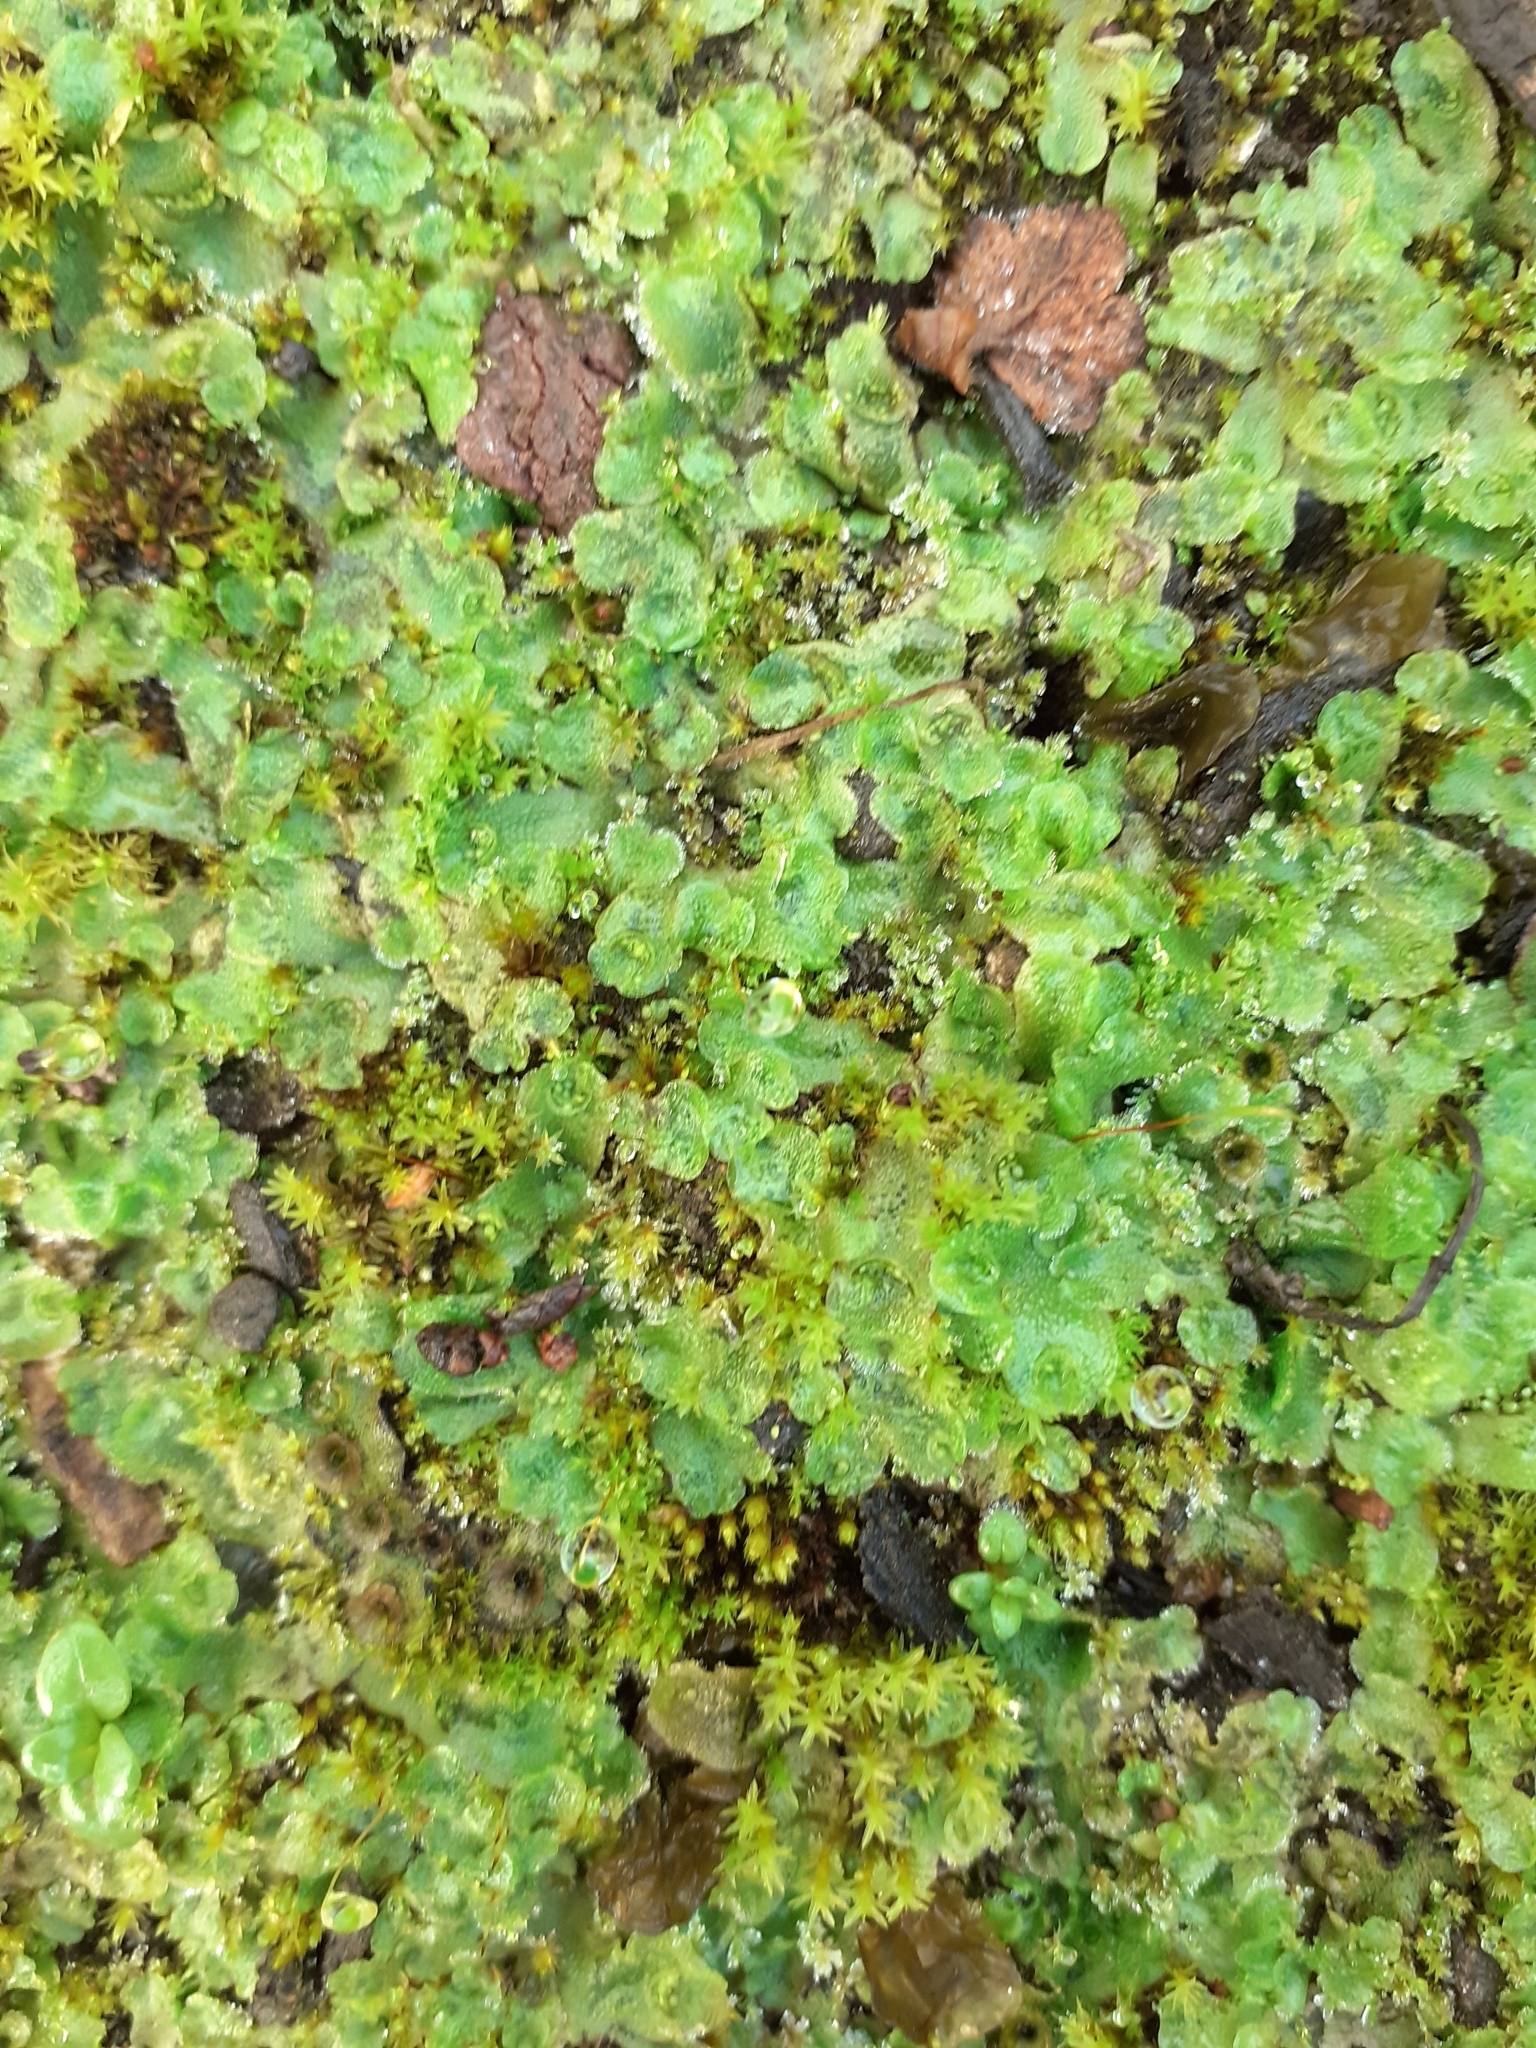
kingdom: Plantae
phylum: Marchantiophyta
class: Marchantiopsida
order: Lunulariales
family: Lunulariaceae
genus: Lunularia
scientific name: Lunularia cruciata
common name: Crescent-cup liverwort
